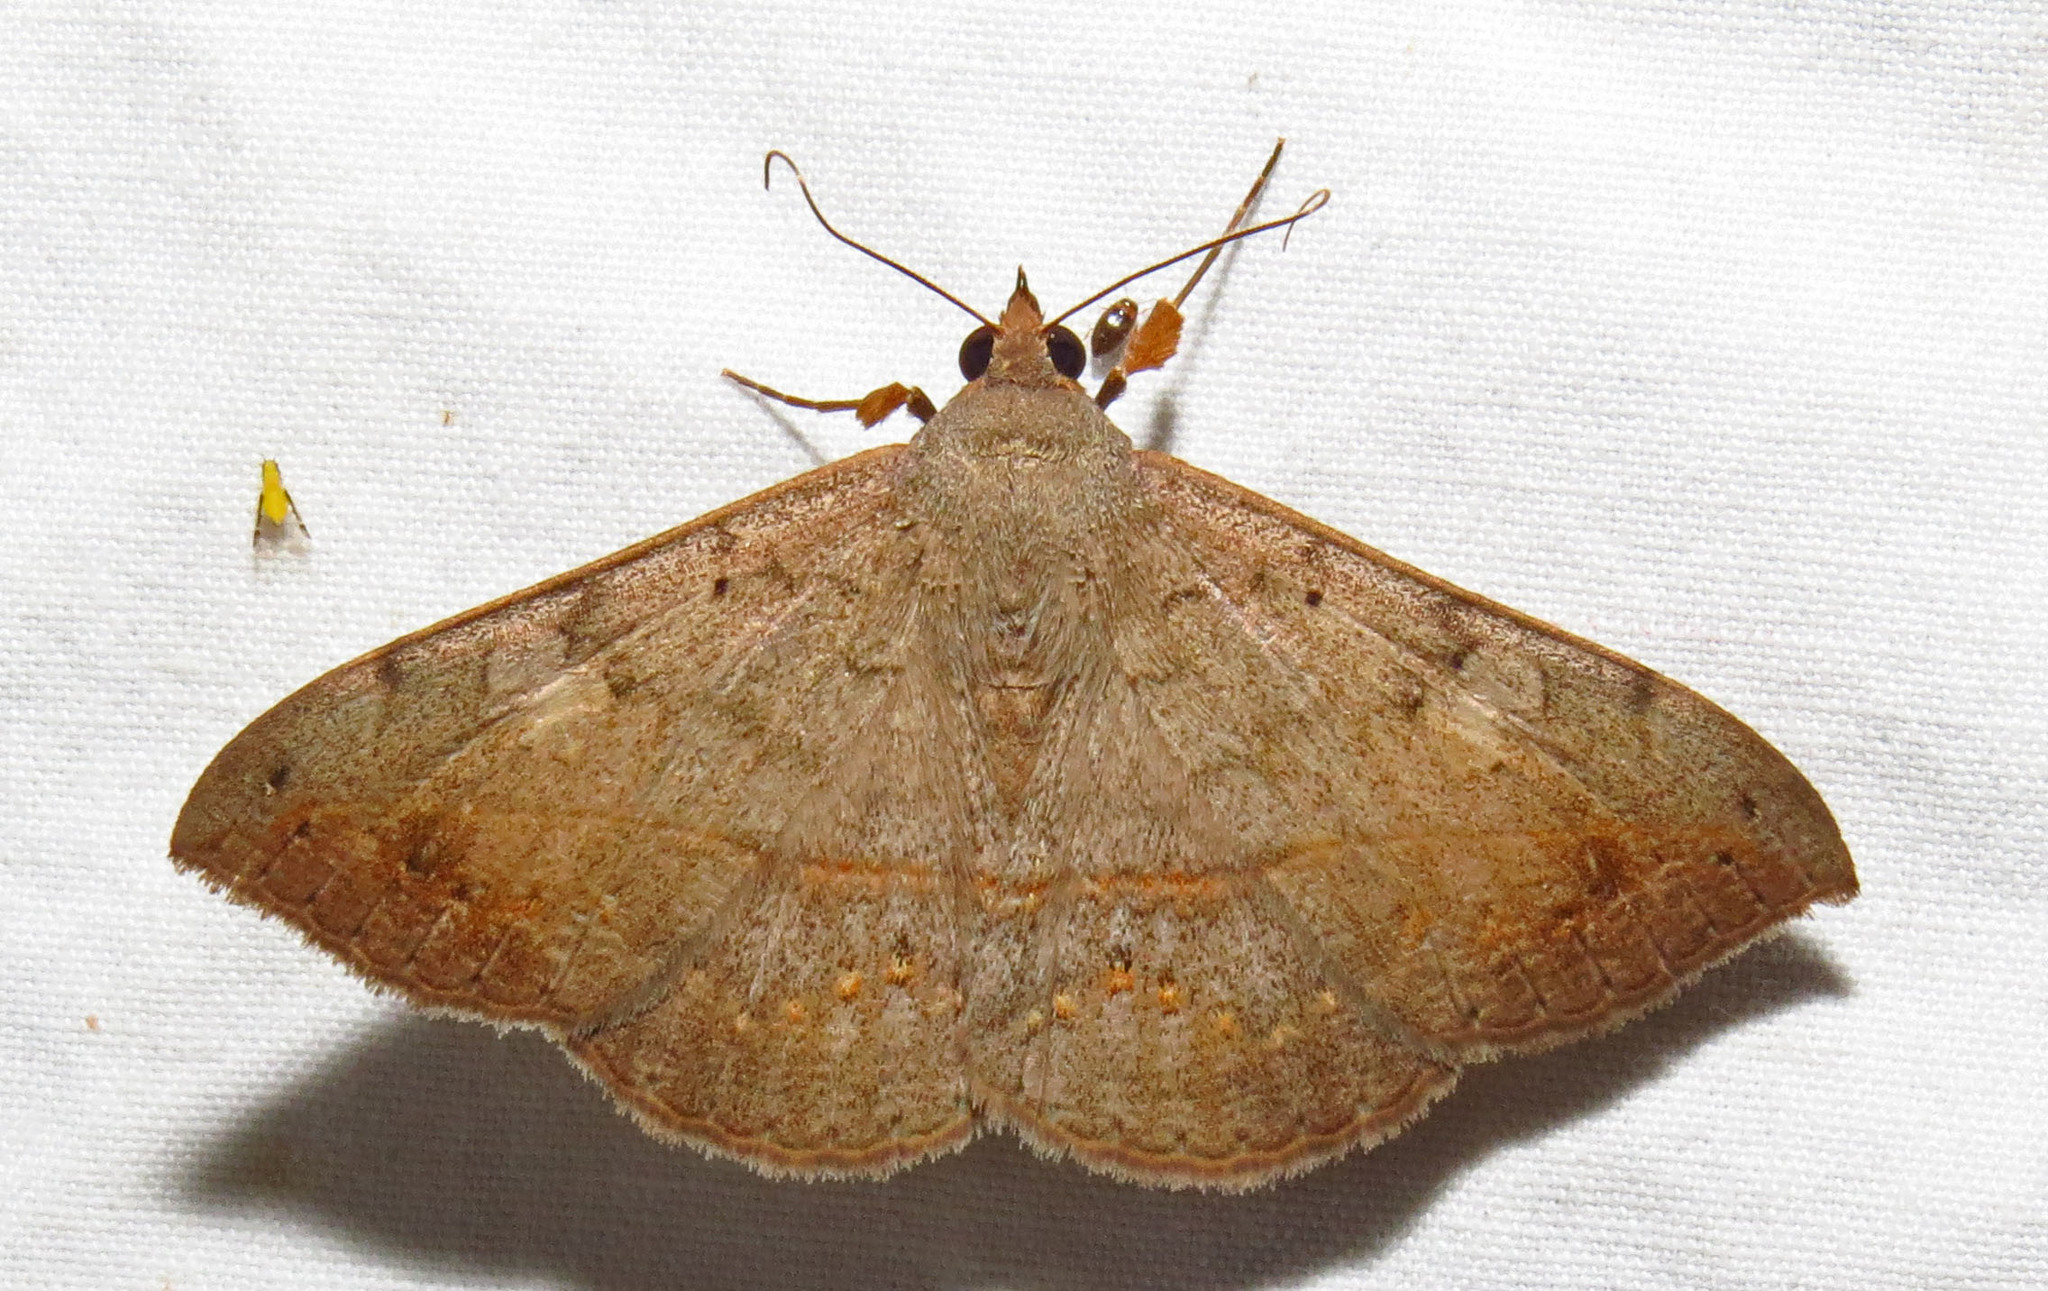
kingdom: Animalia
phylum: Arthropoda
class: Insecta
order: Lepidoptera
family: Erebidae
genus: Anticarsia
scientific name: Anticarsia gemmatalis
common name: Cutworm moth
